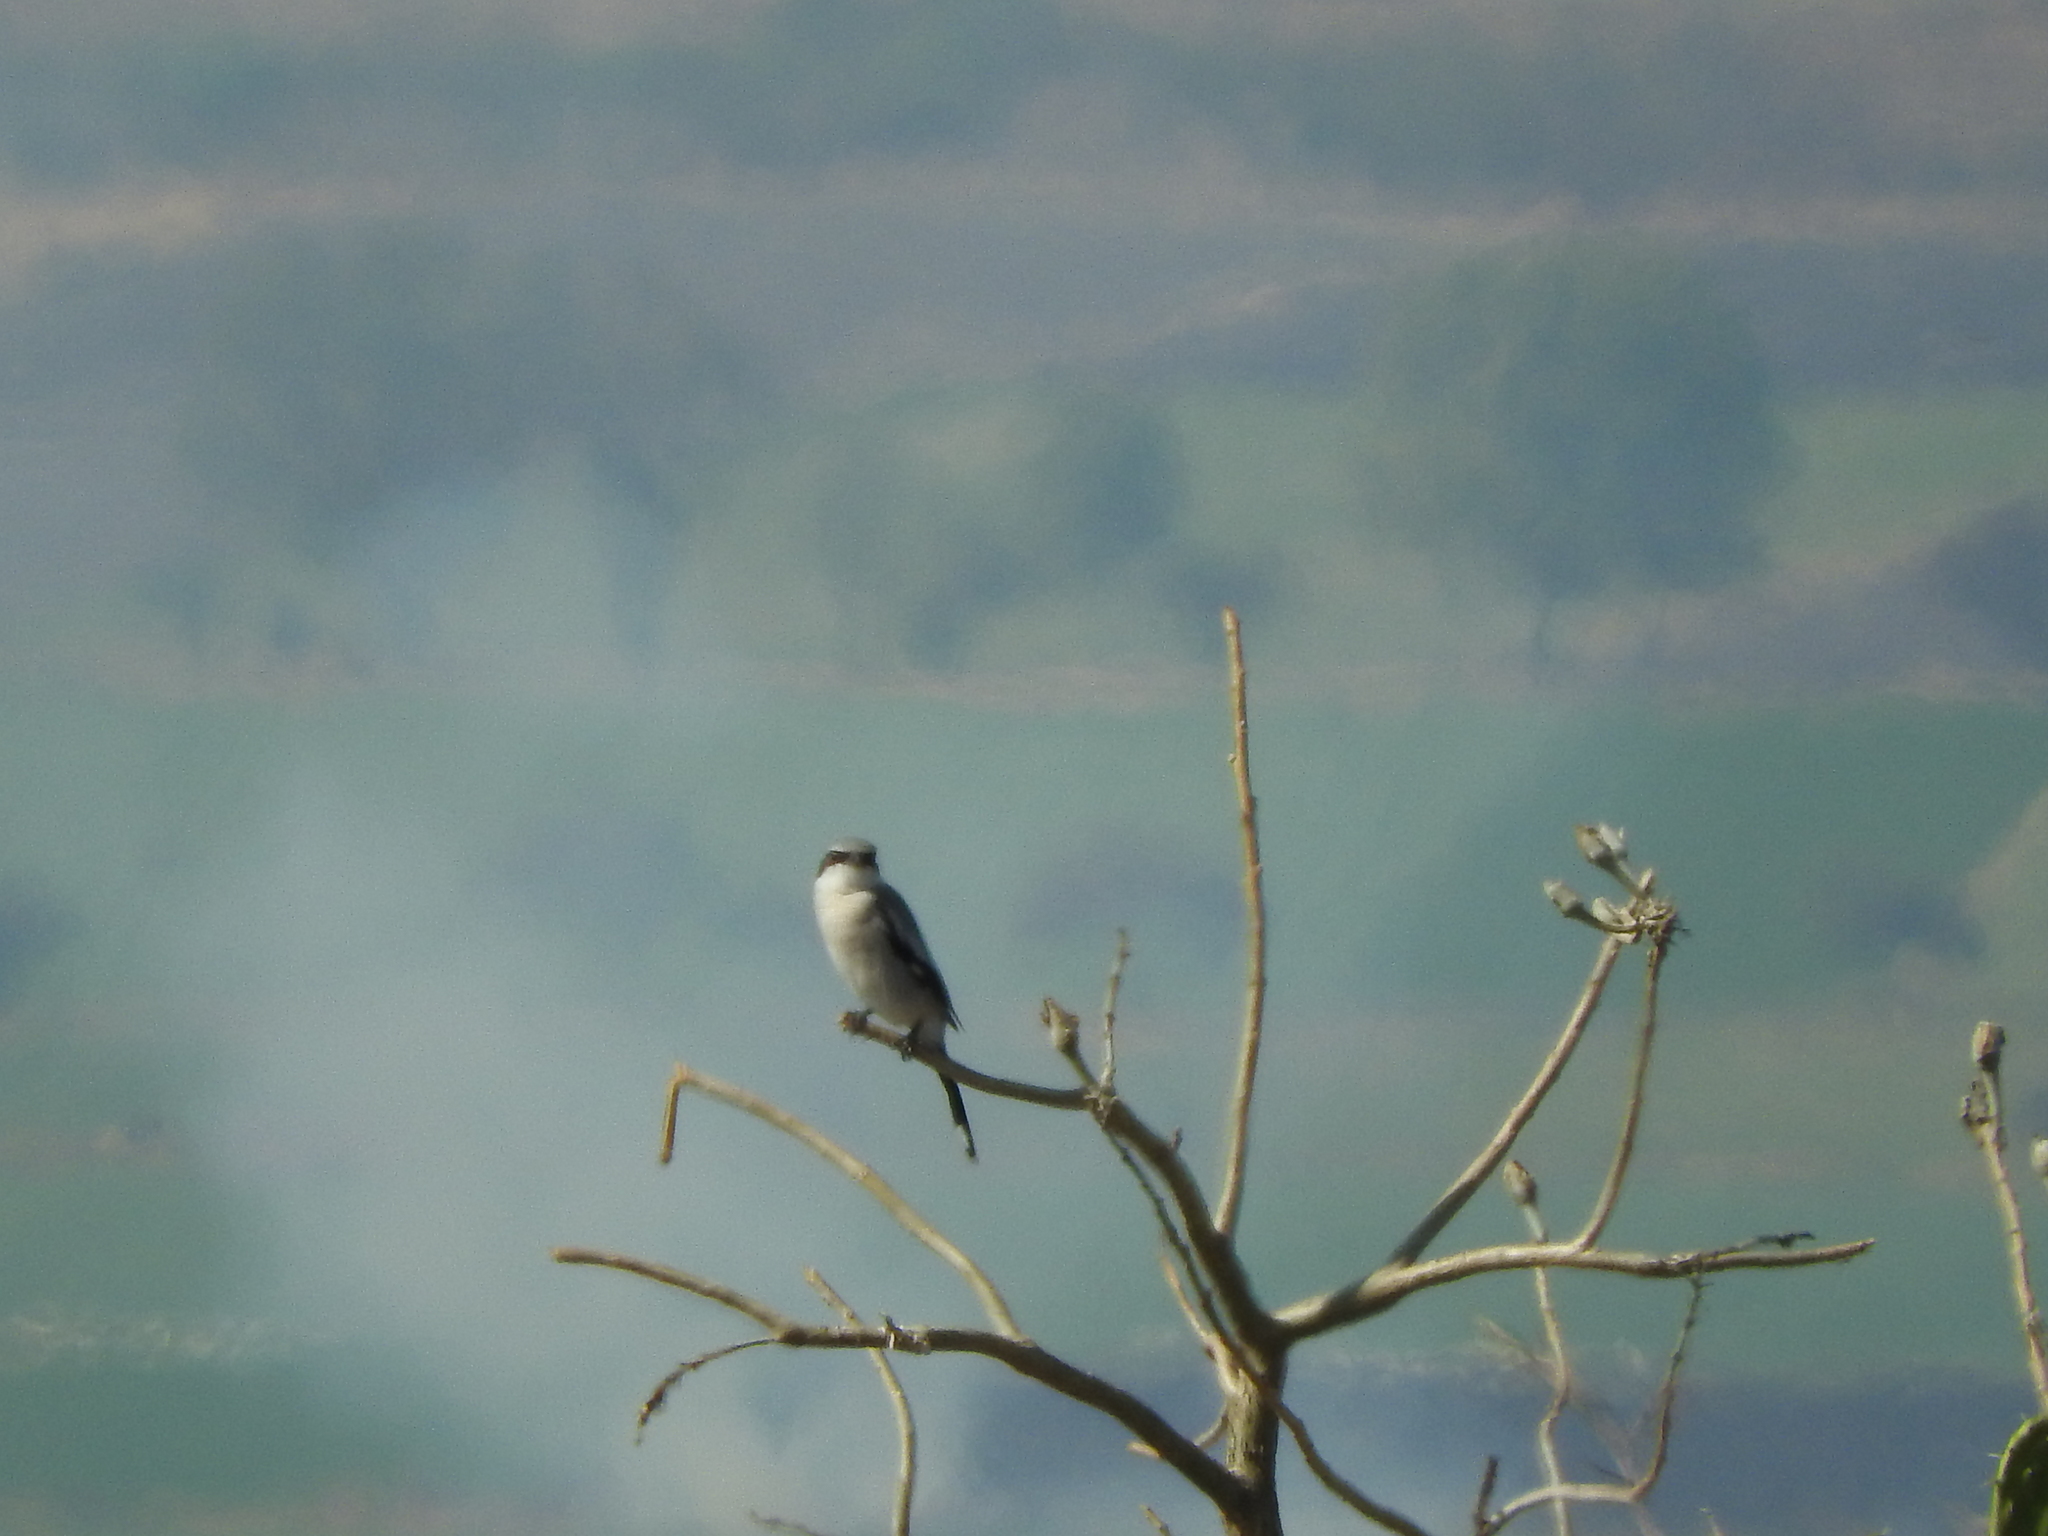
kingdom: Animalia
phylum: Chordata
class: Aves
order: Passeriformes
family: Laniidae
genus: Lanius
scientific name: Lanius ludovicianus
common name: Loggerhead shrike
